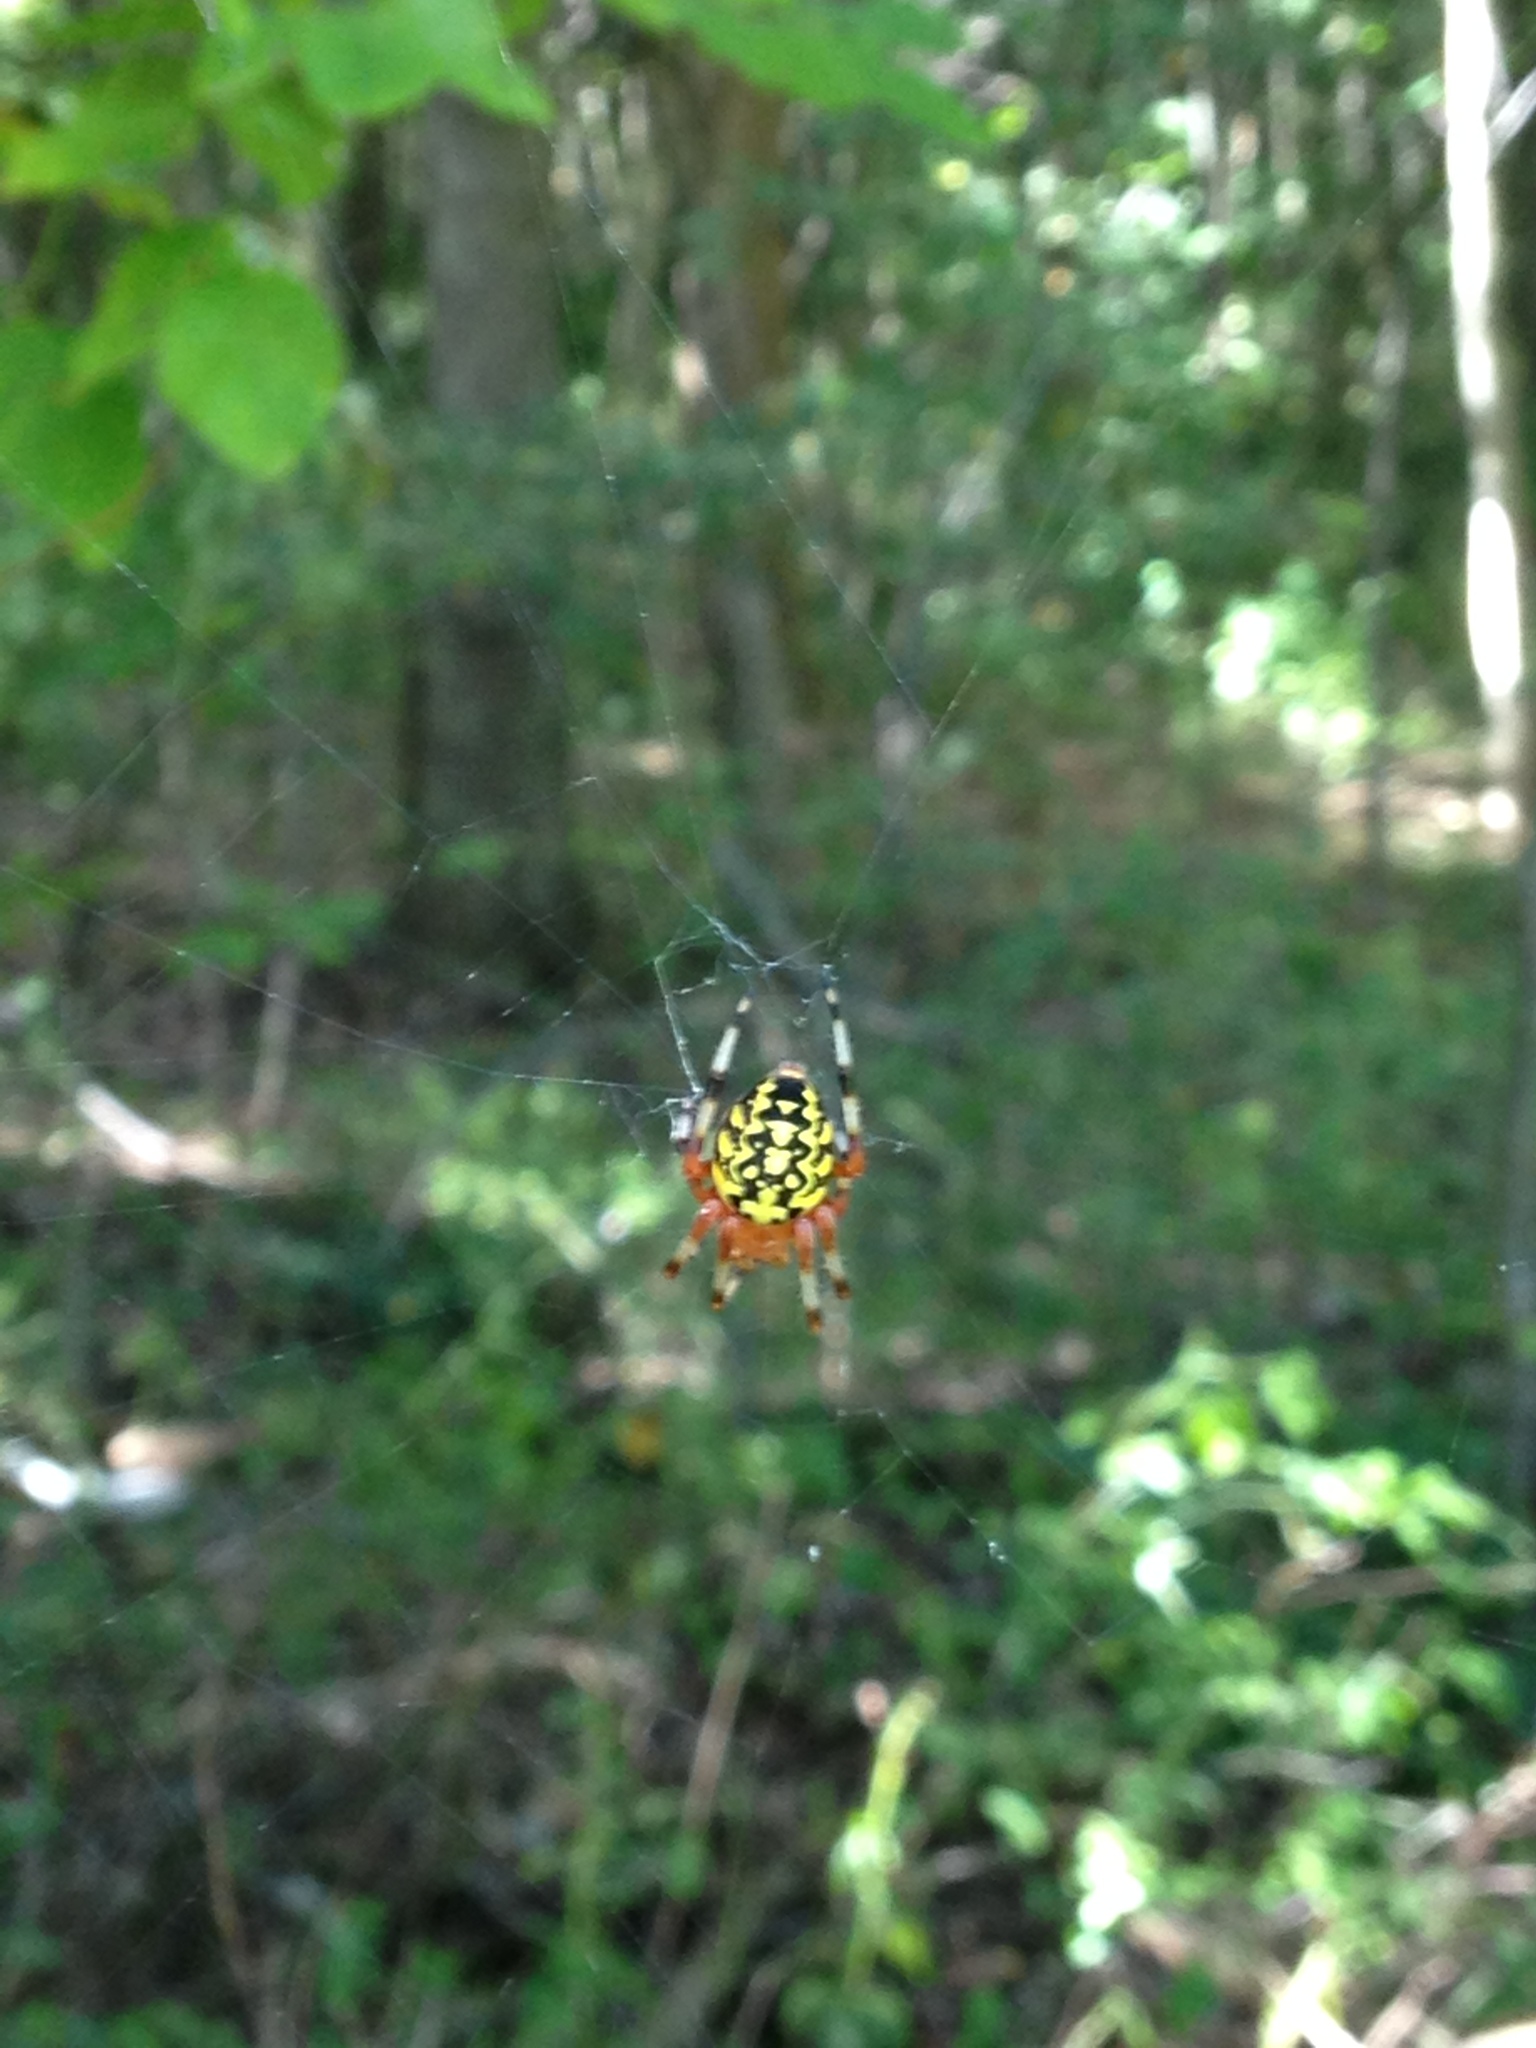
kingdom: Animalia
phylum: Arthropoda
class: Arachnida
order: Araneae
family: Araneidae
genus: Araneus
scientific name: Araneus marmoreus
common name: Marbled orbweaver
